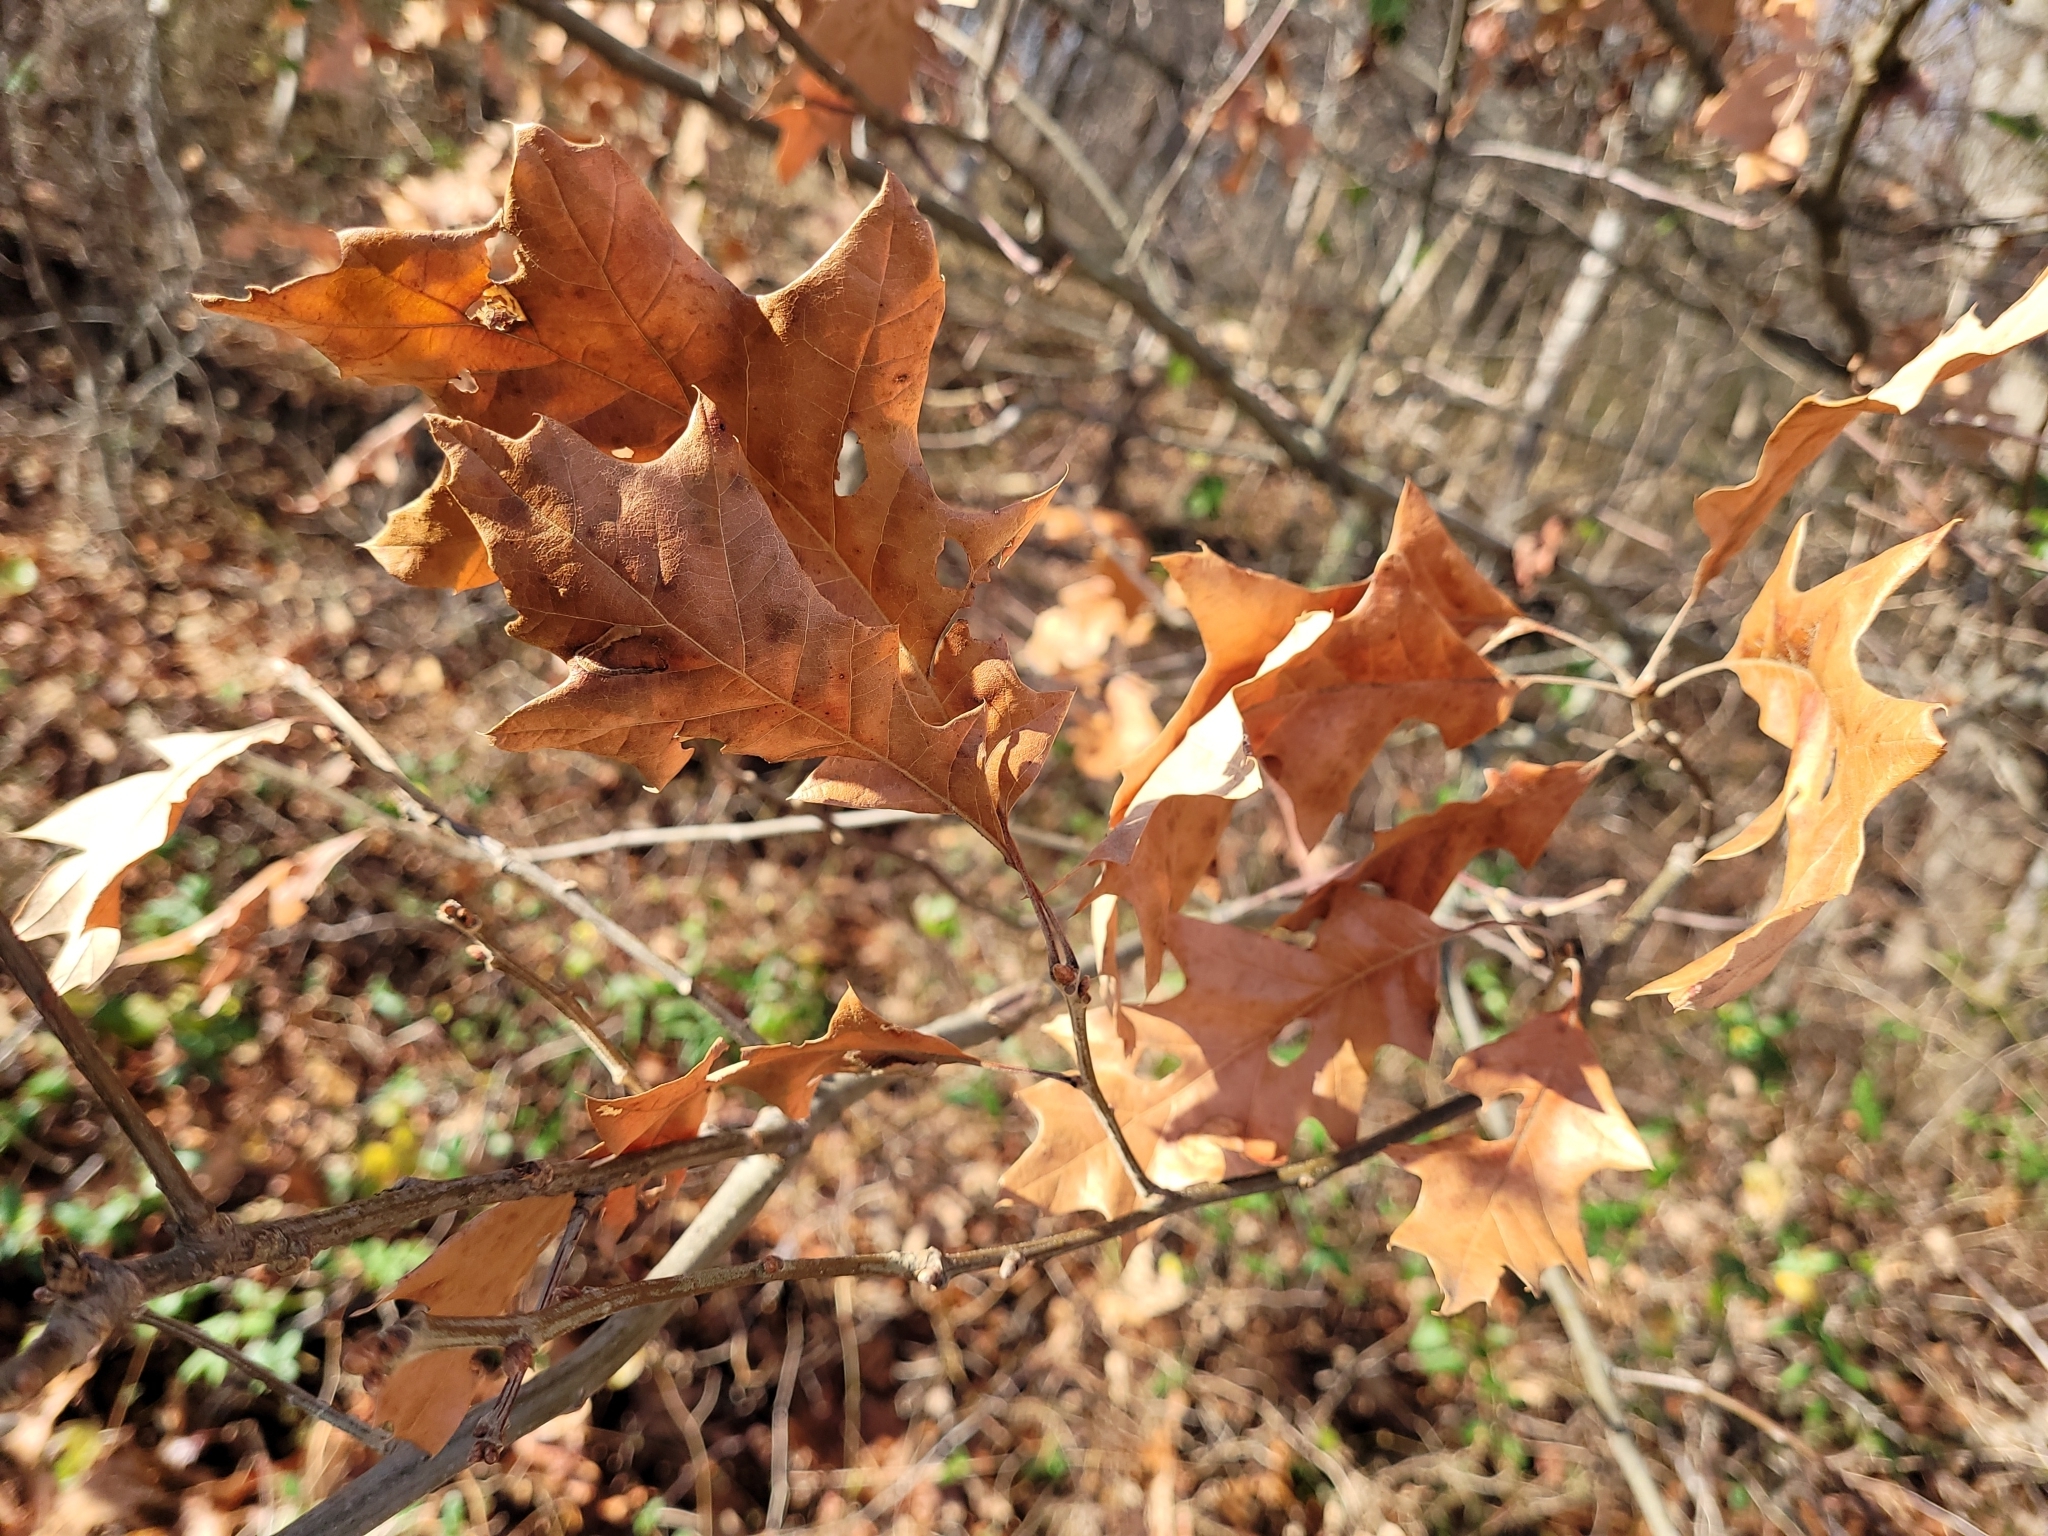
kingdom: Plantae
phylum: Tracheophyta
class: Magnoliopsida
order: Fagales
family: Fagaceae
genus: Quercus
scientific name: Quercus pagoda
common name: Cherrybark oak
